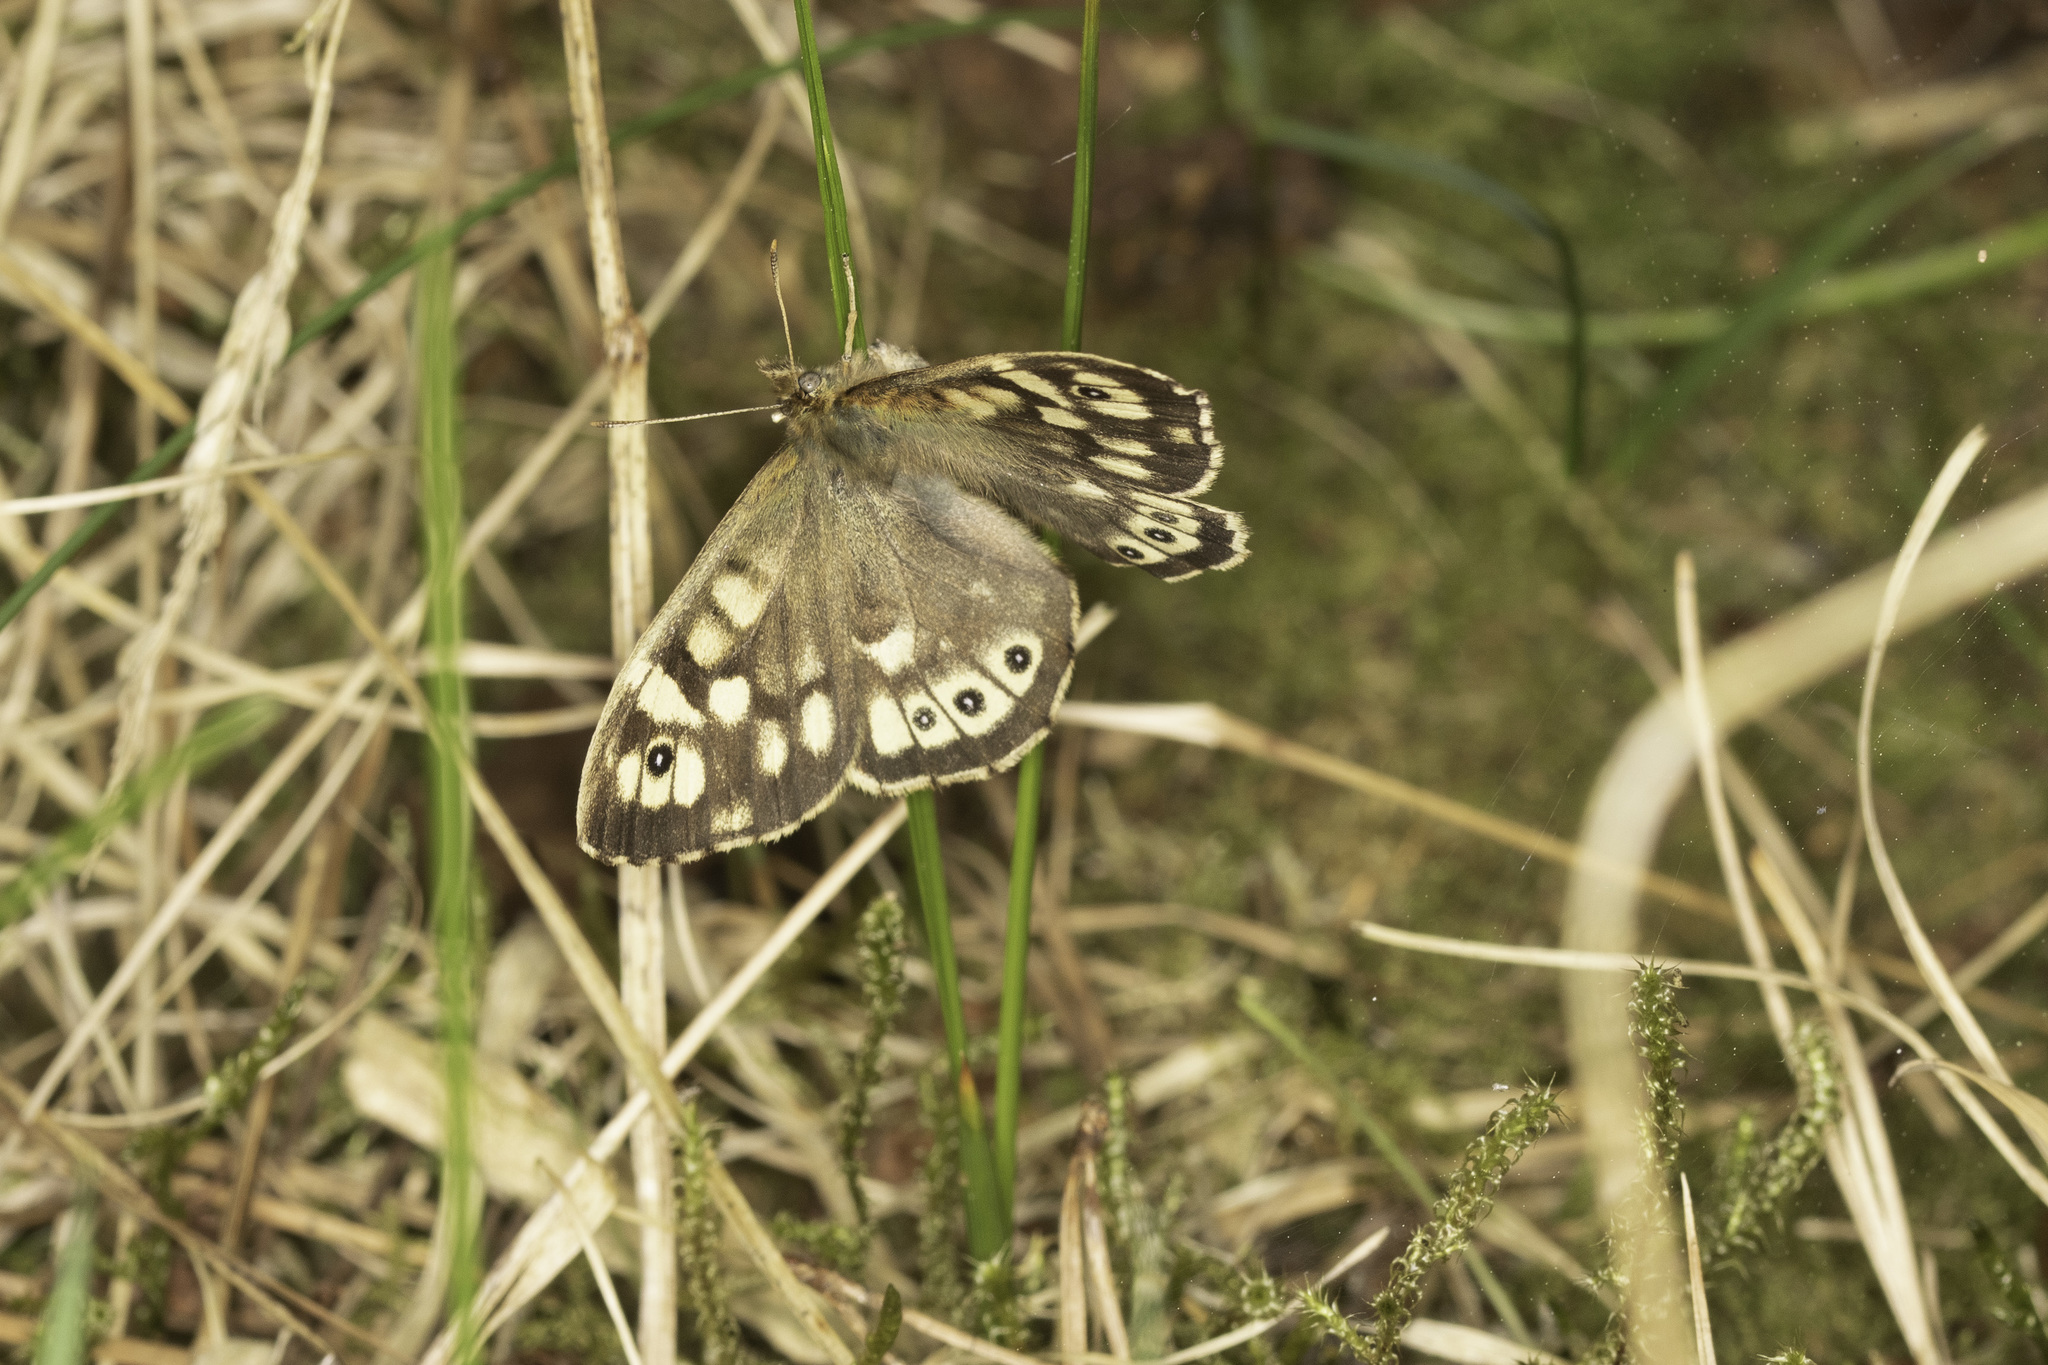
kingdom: Animalia
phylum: Arthropoda
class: Insecta
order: Lepidoptera
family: Nymphalidae
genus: Pararge
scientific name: Pararge aegeria
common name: Speckled wood
